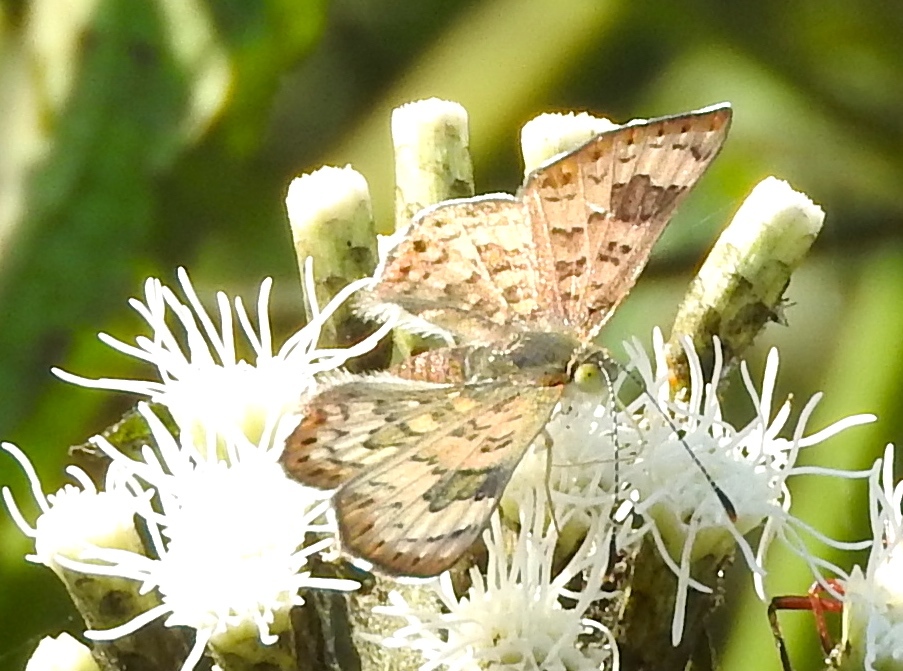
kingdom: Animalia
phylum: Arthropoda
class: Insecta
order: Lepidoptera
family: Riodinidae
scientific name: Riodinidae
